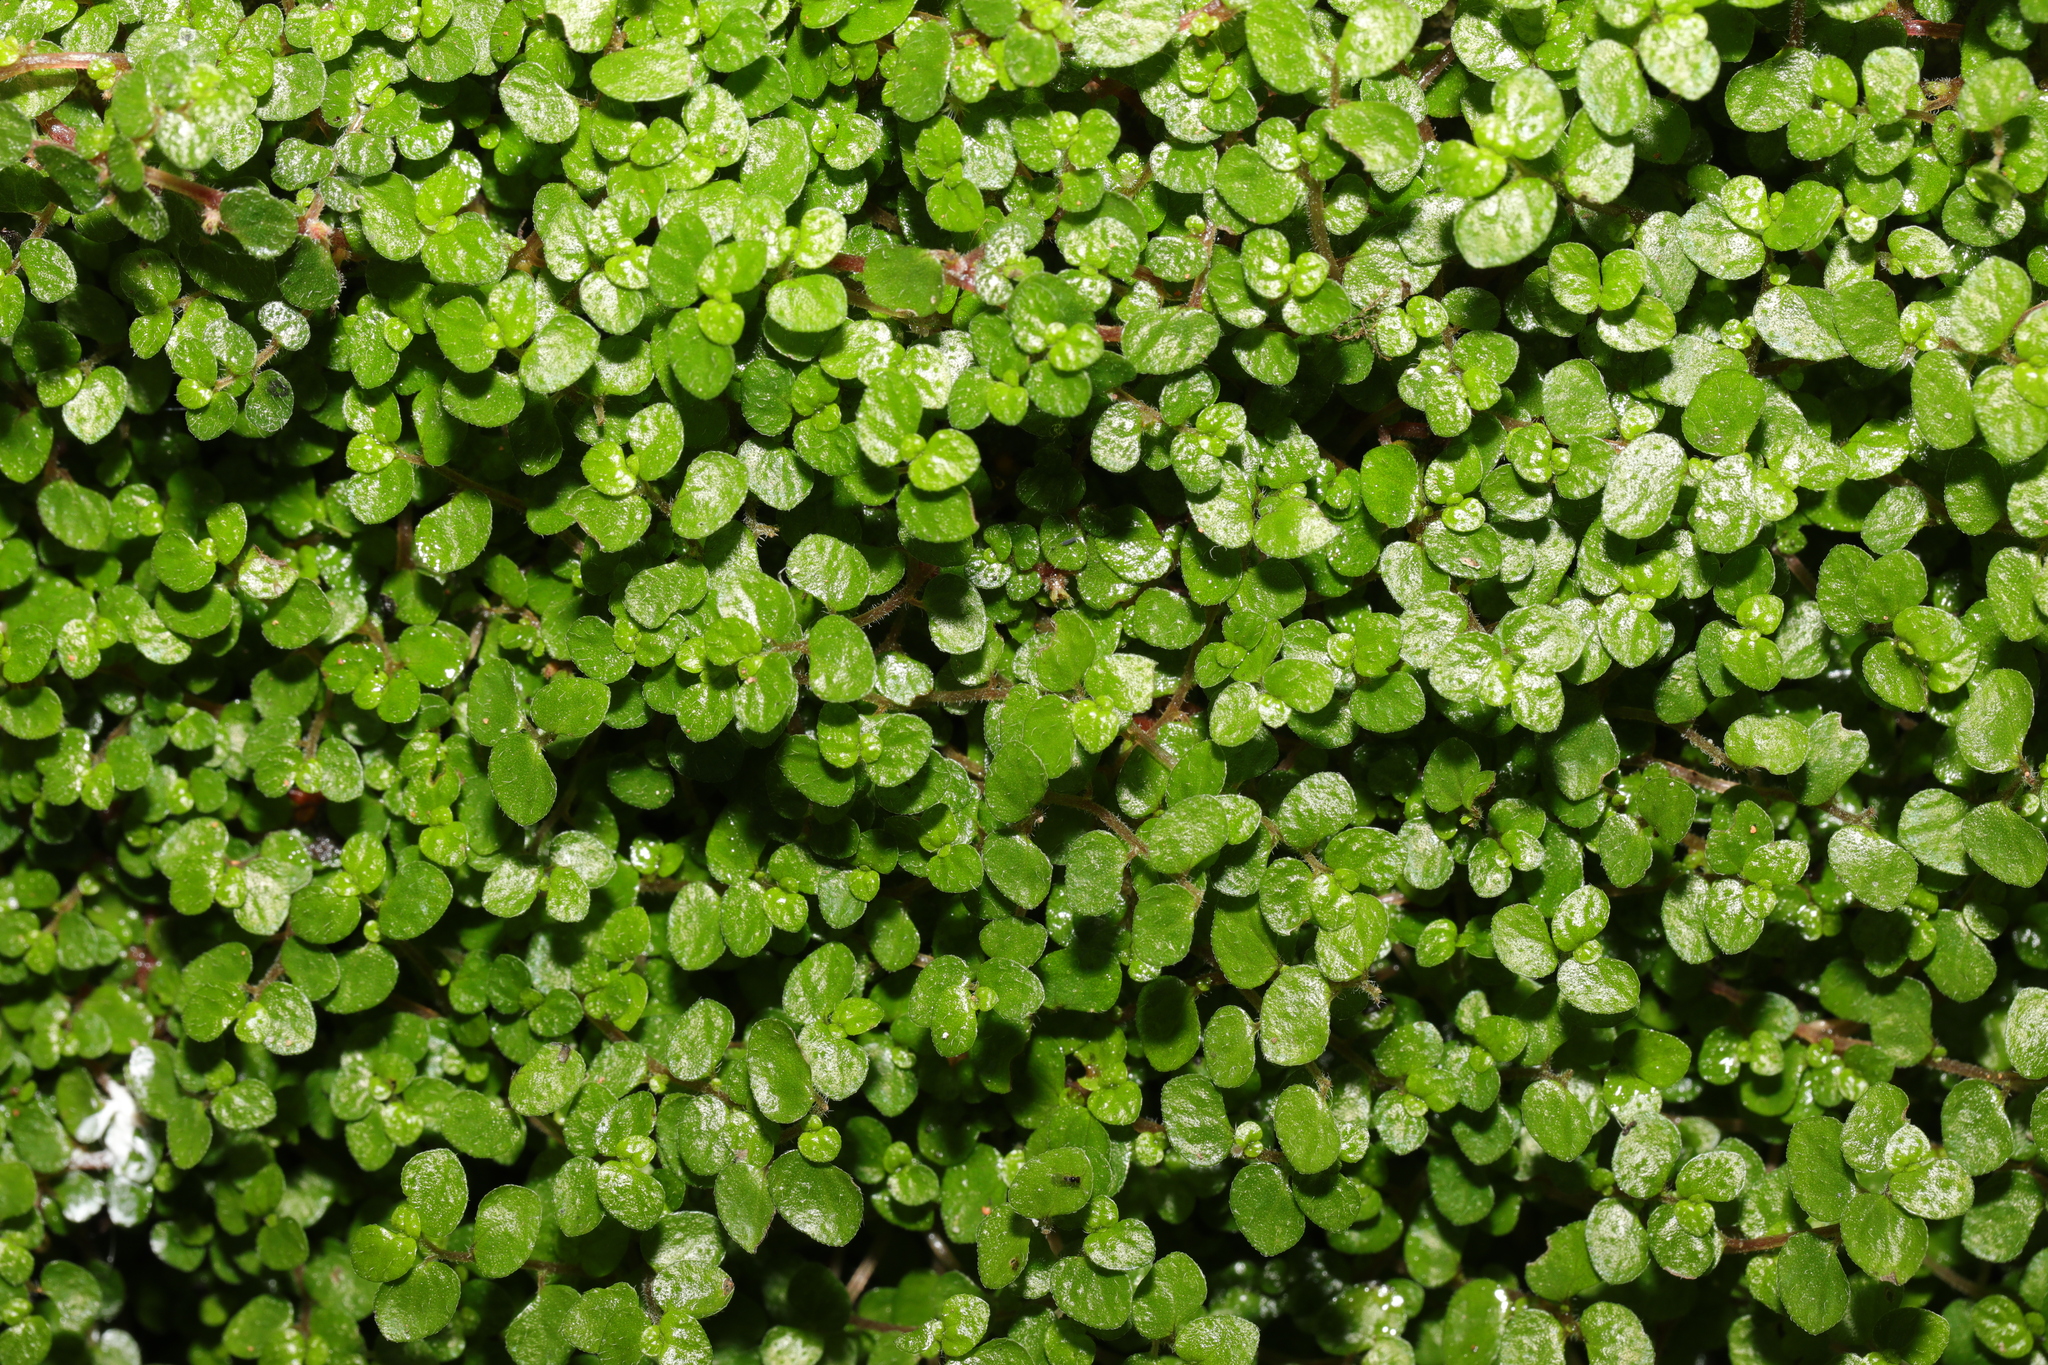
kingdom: Plantae
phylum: Tracheophyta
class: Magnoliopsida
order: Rosales
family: Urticaceae
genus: Soleirolia
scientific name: Soleirolia soleirolii
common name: Mind-your-own-business
